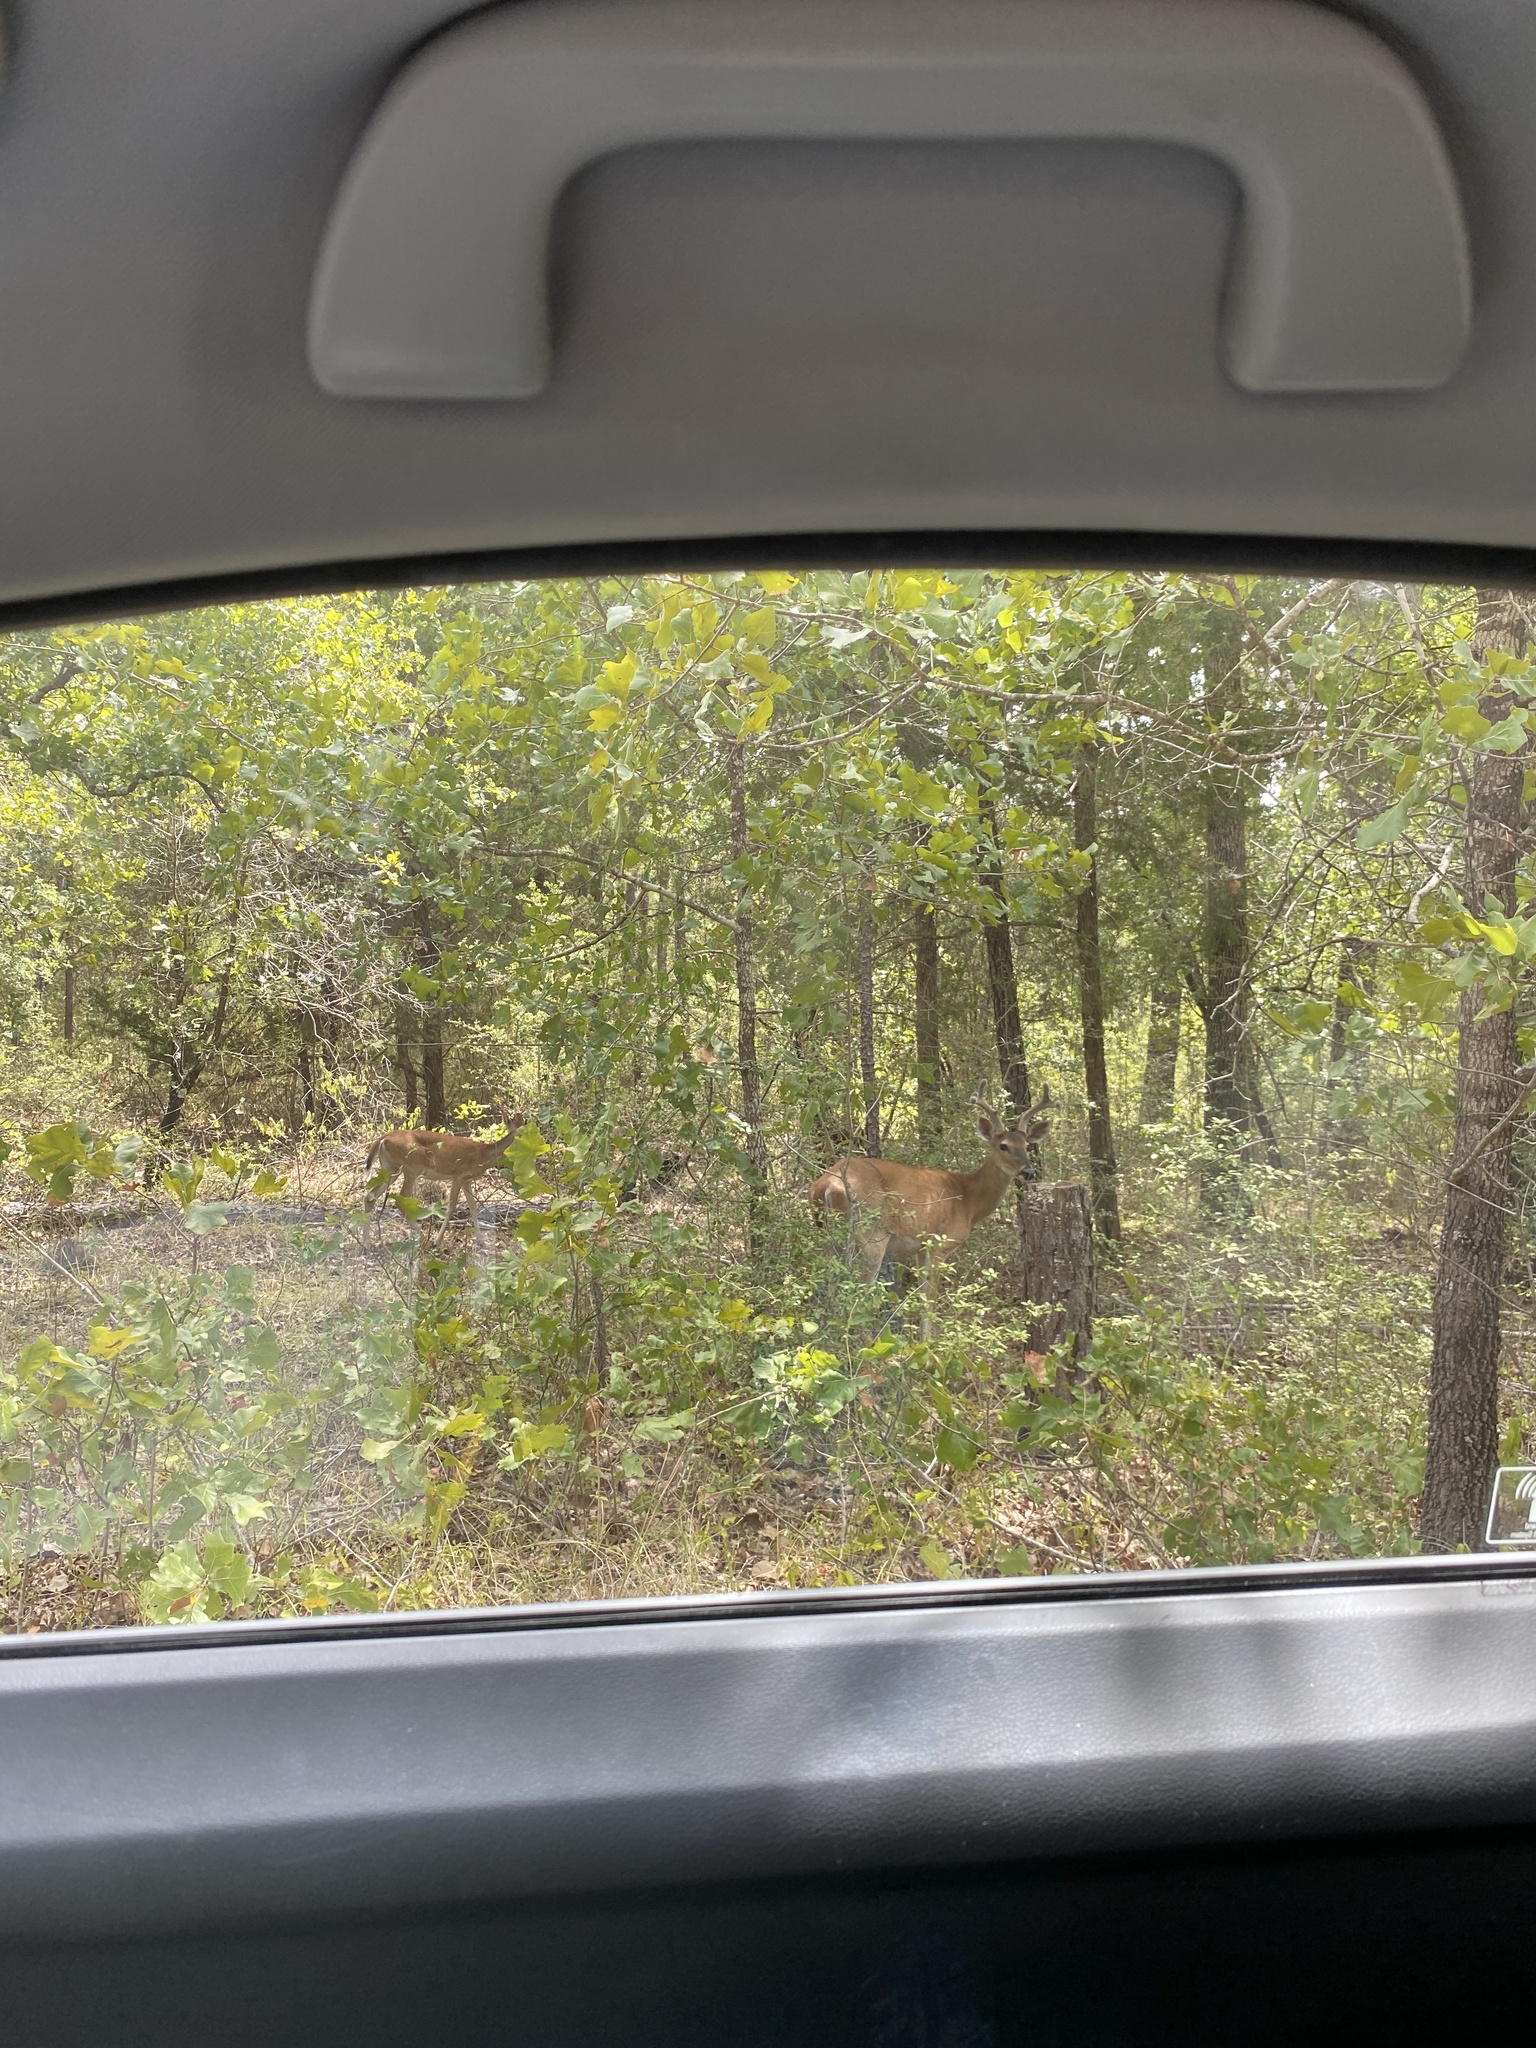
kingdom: Animalia
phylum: Chordata
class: Mammalia
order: Artiodactyla
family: Cervidae
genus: Odocoileus
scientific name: Odocoileus virginianus
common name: White-tailed deer
